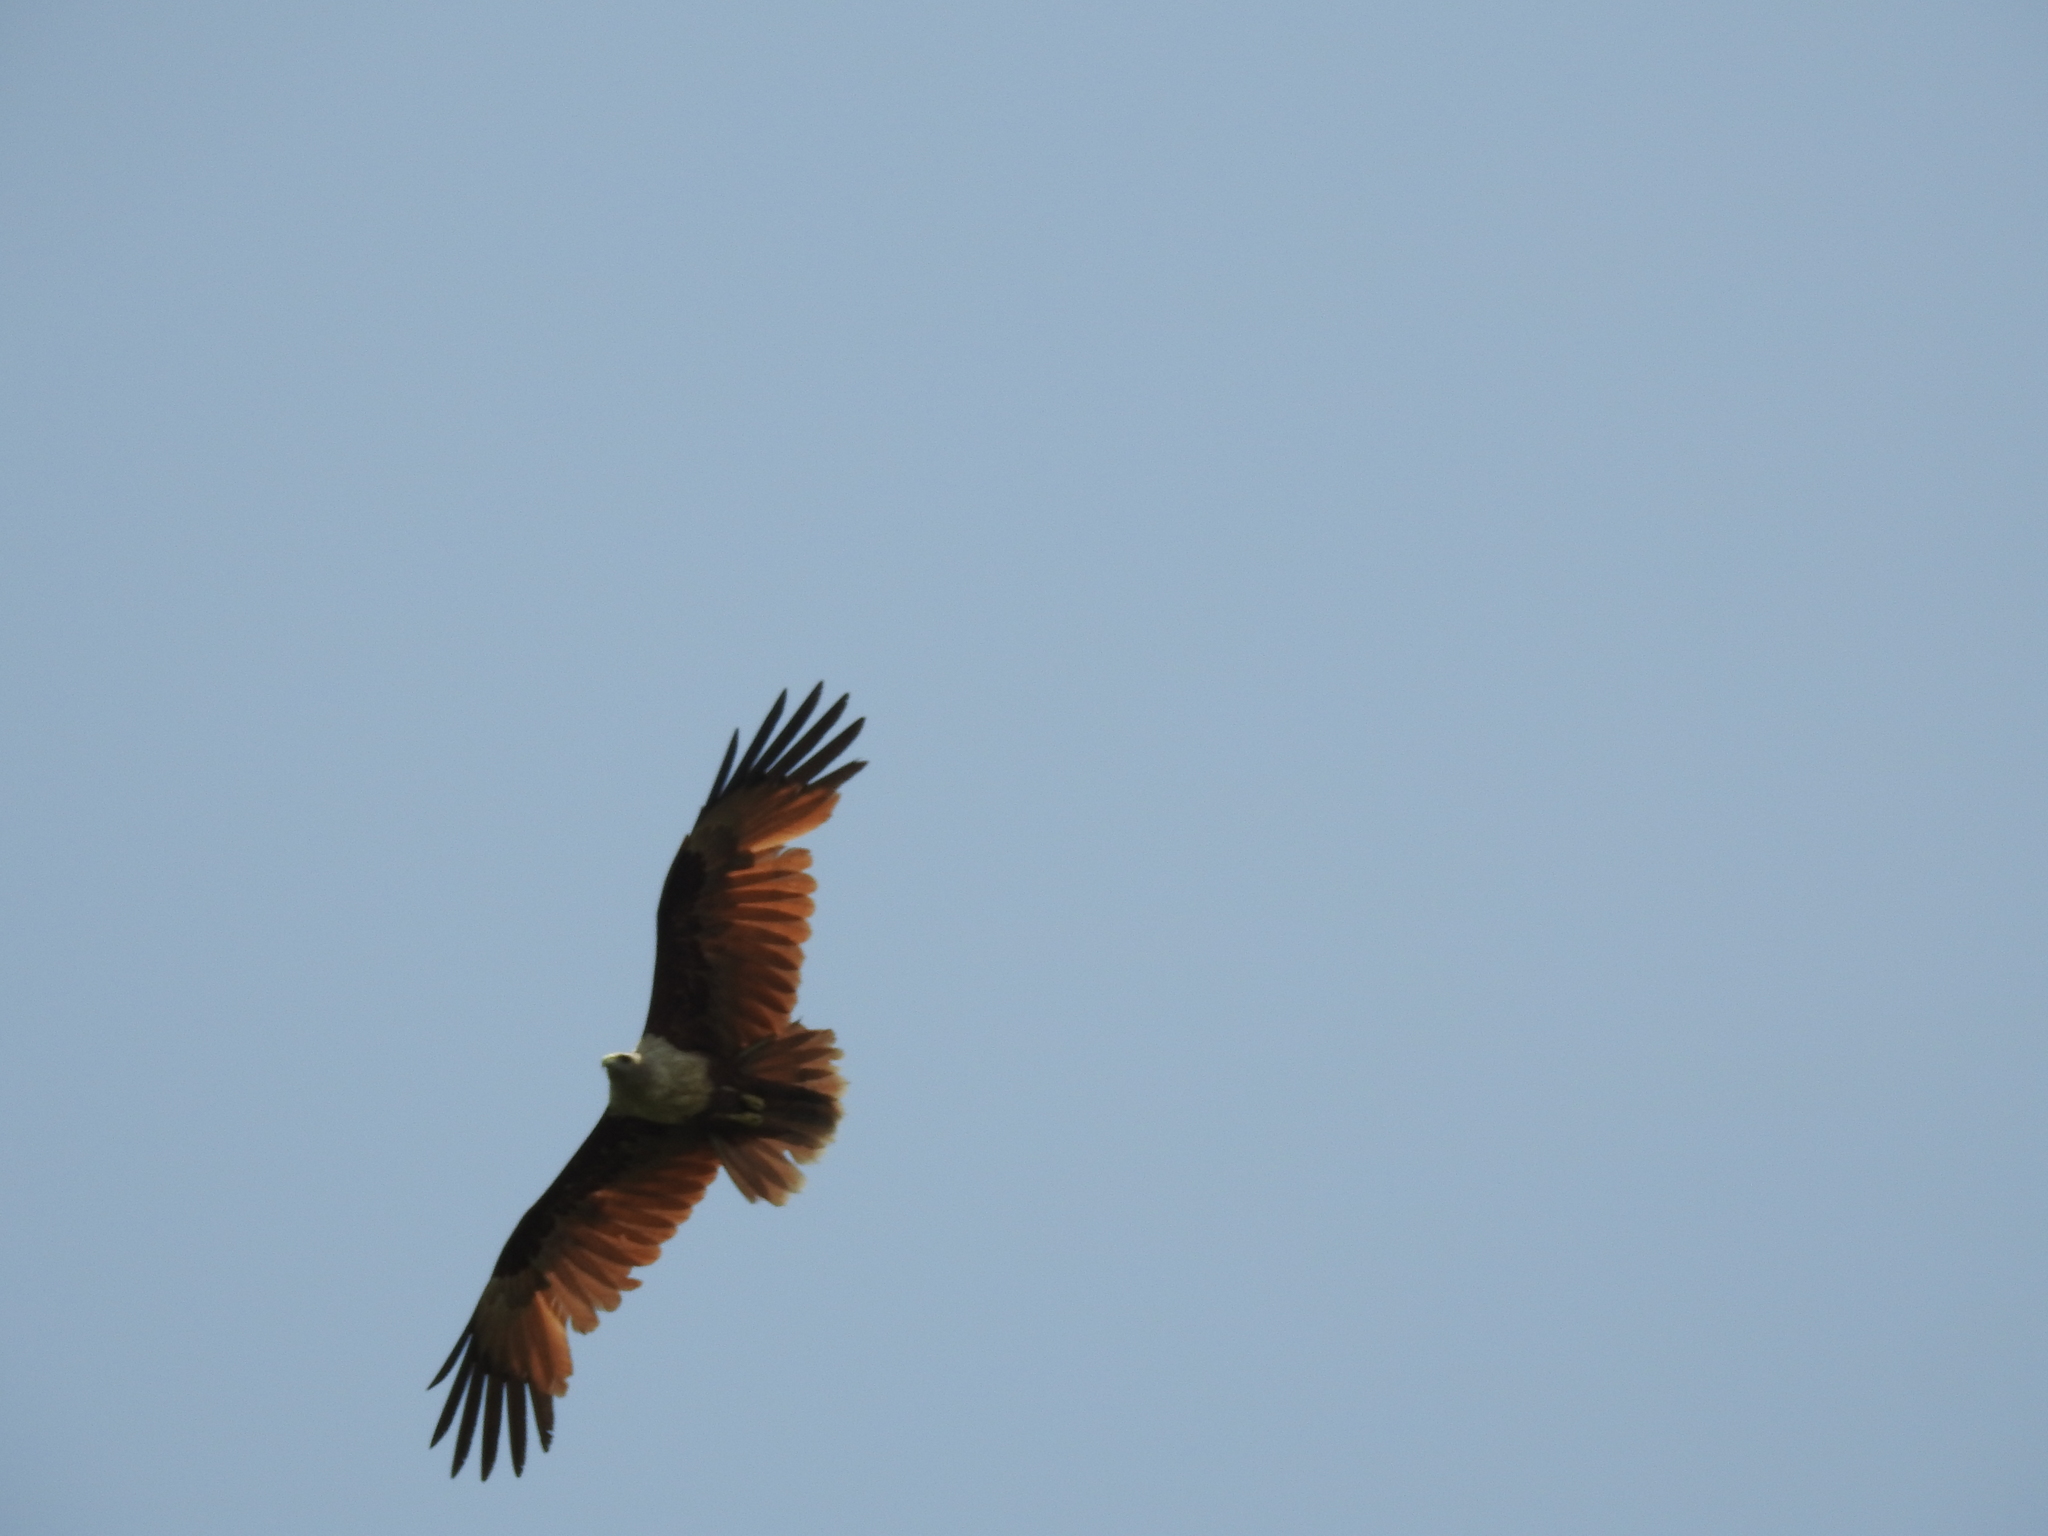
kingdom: Animalia
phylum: Chordata
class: Aves
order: Accipitriformes
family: Accipitridae
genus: Haliastur
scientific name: Haliastur indus
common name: Brahminy kite
